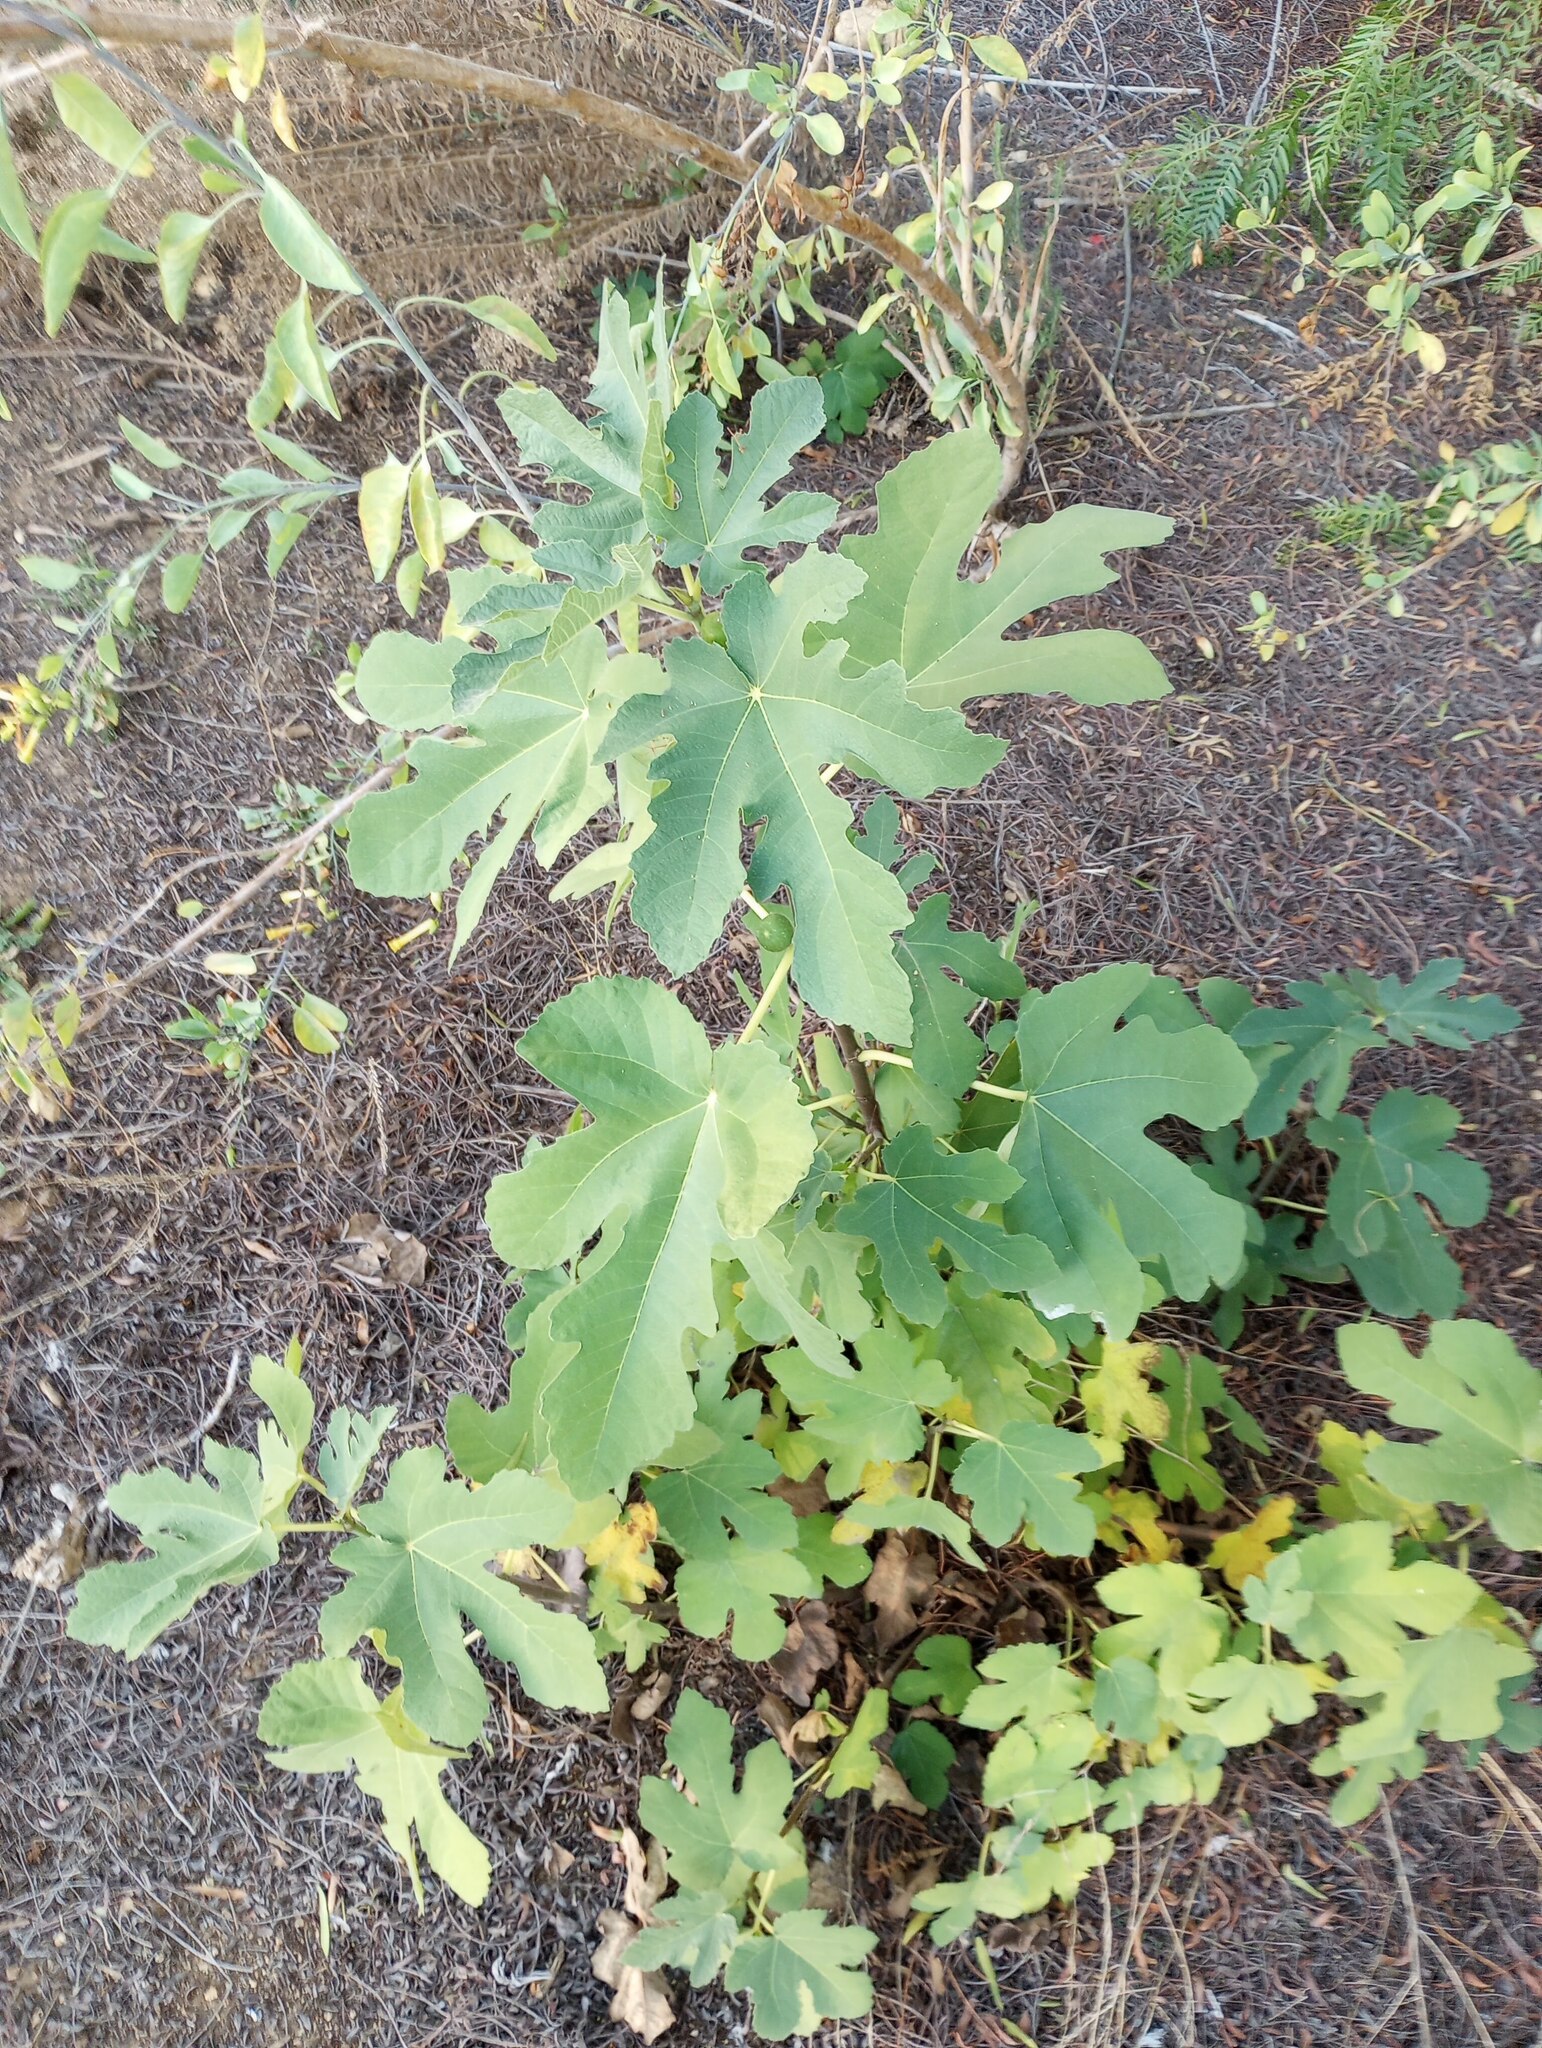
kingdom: Plantae
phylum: Tracheophyta
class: Magnoliopsida
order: Rosales
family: Moraceae
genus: Ficus
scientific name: Ficus carica
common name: Fig
